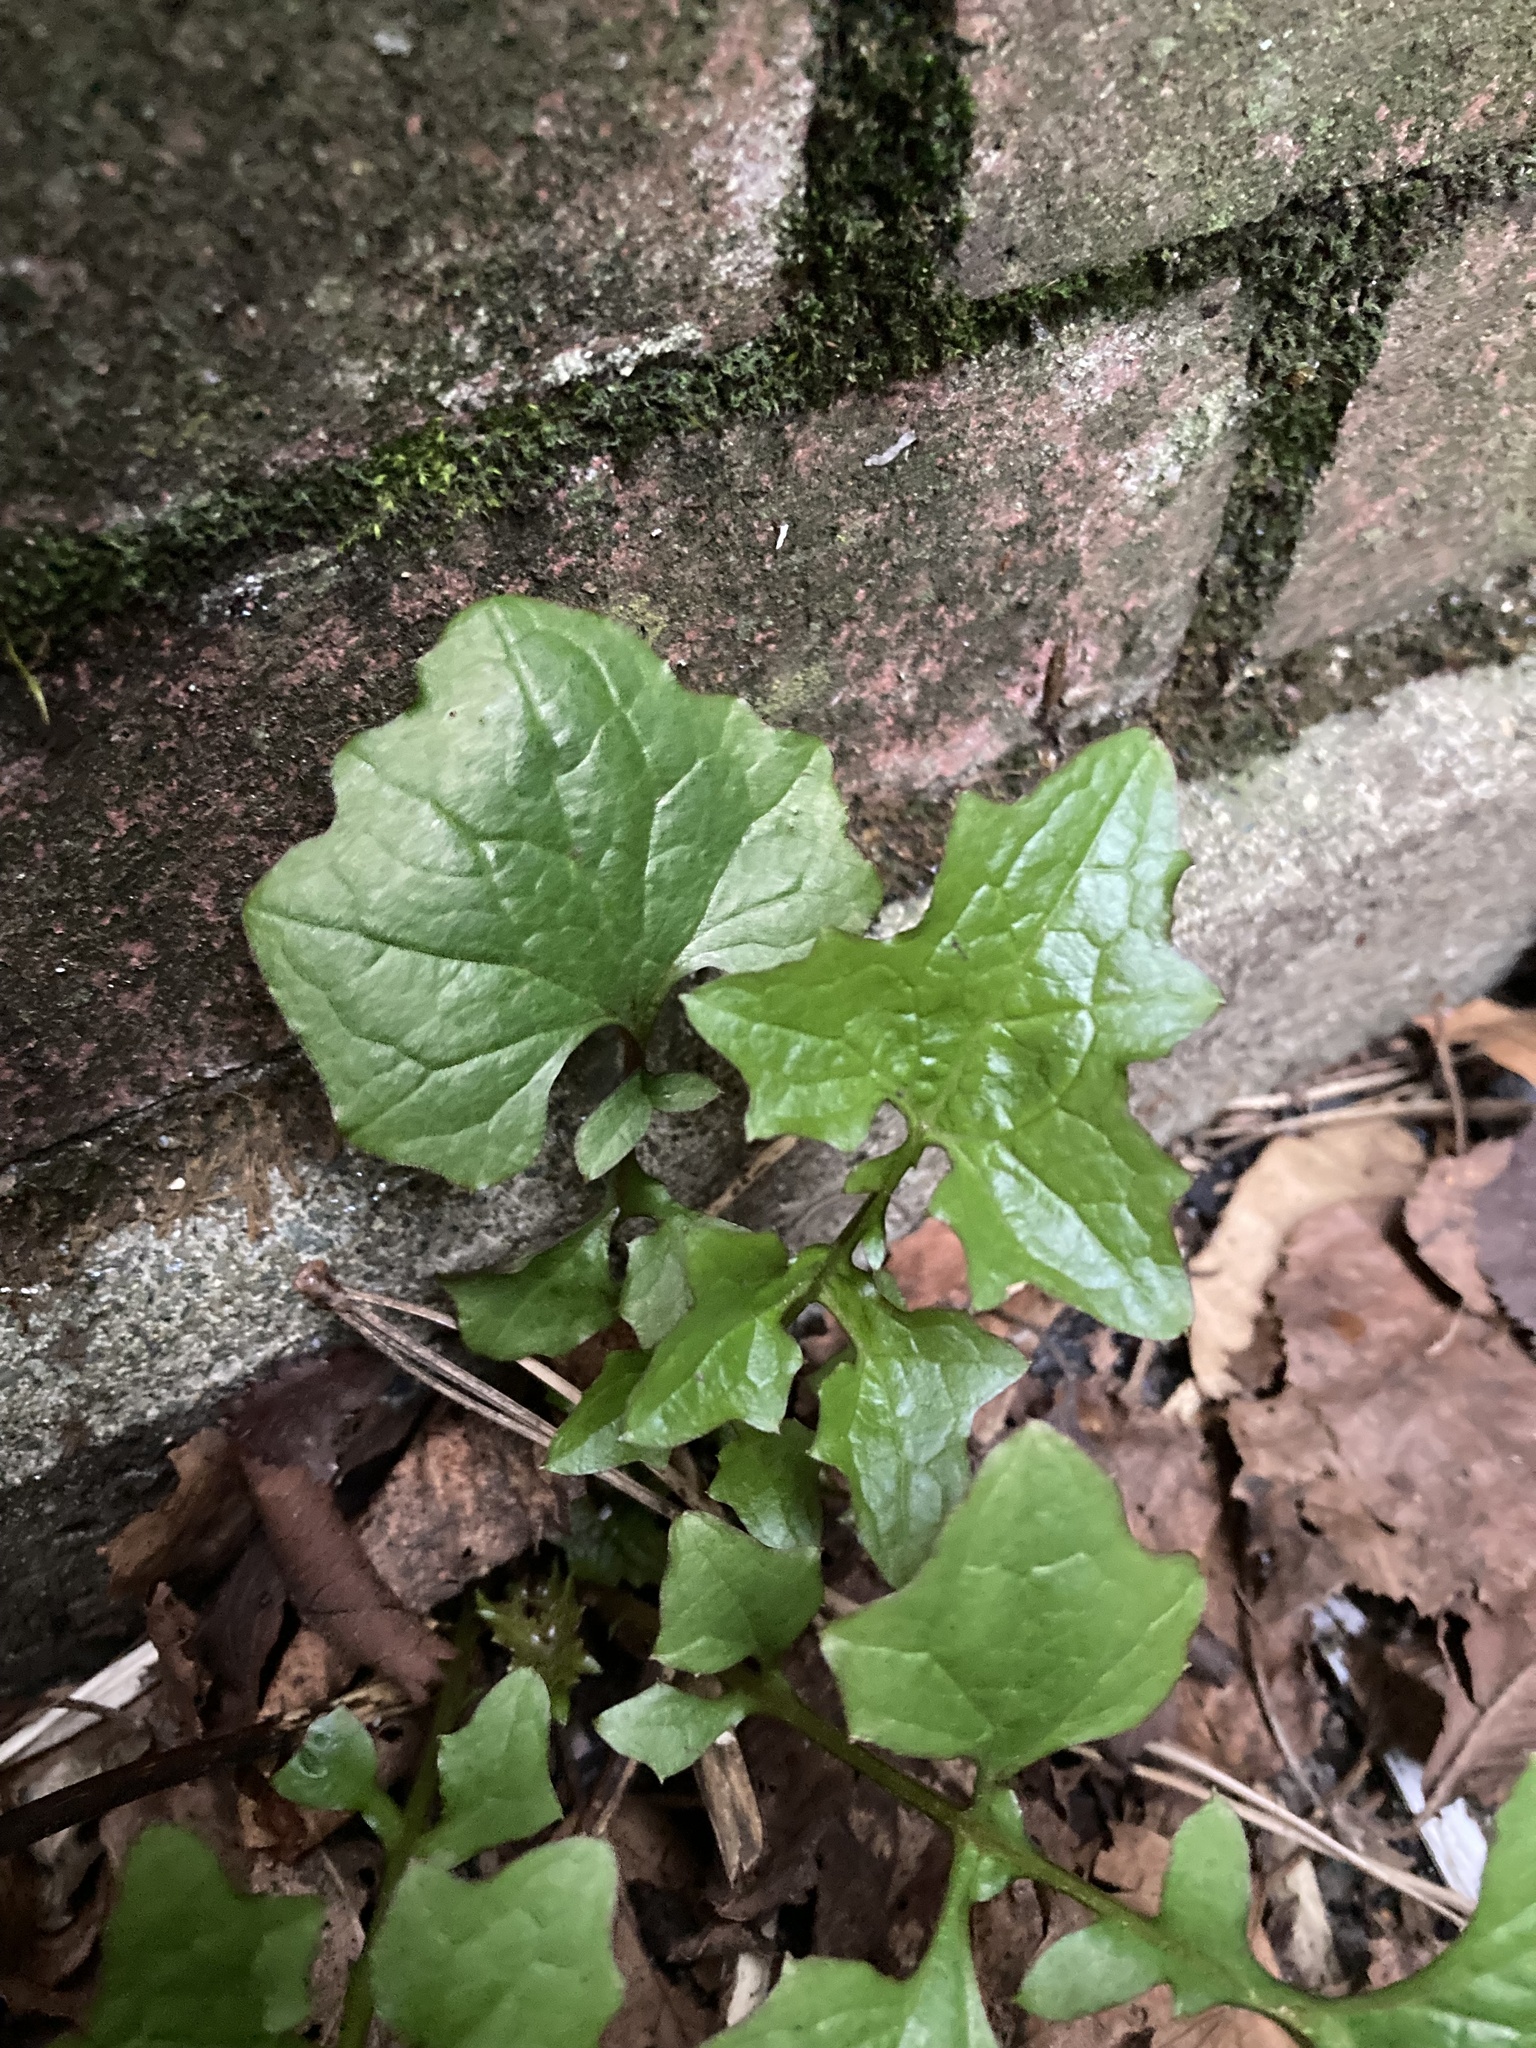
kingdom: Plantae
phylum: Tracheophyta
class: Magnoliopsida
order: Asterales
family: Asteraceae
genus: Mycelis
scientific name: Mycelis muralis
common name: Wall lettuce
